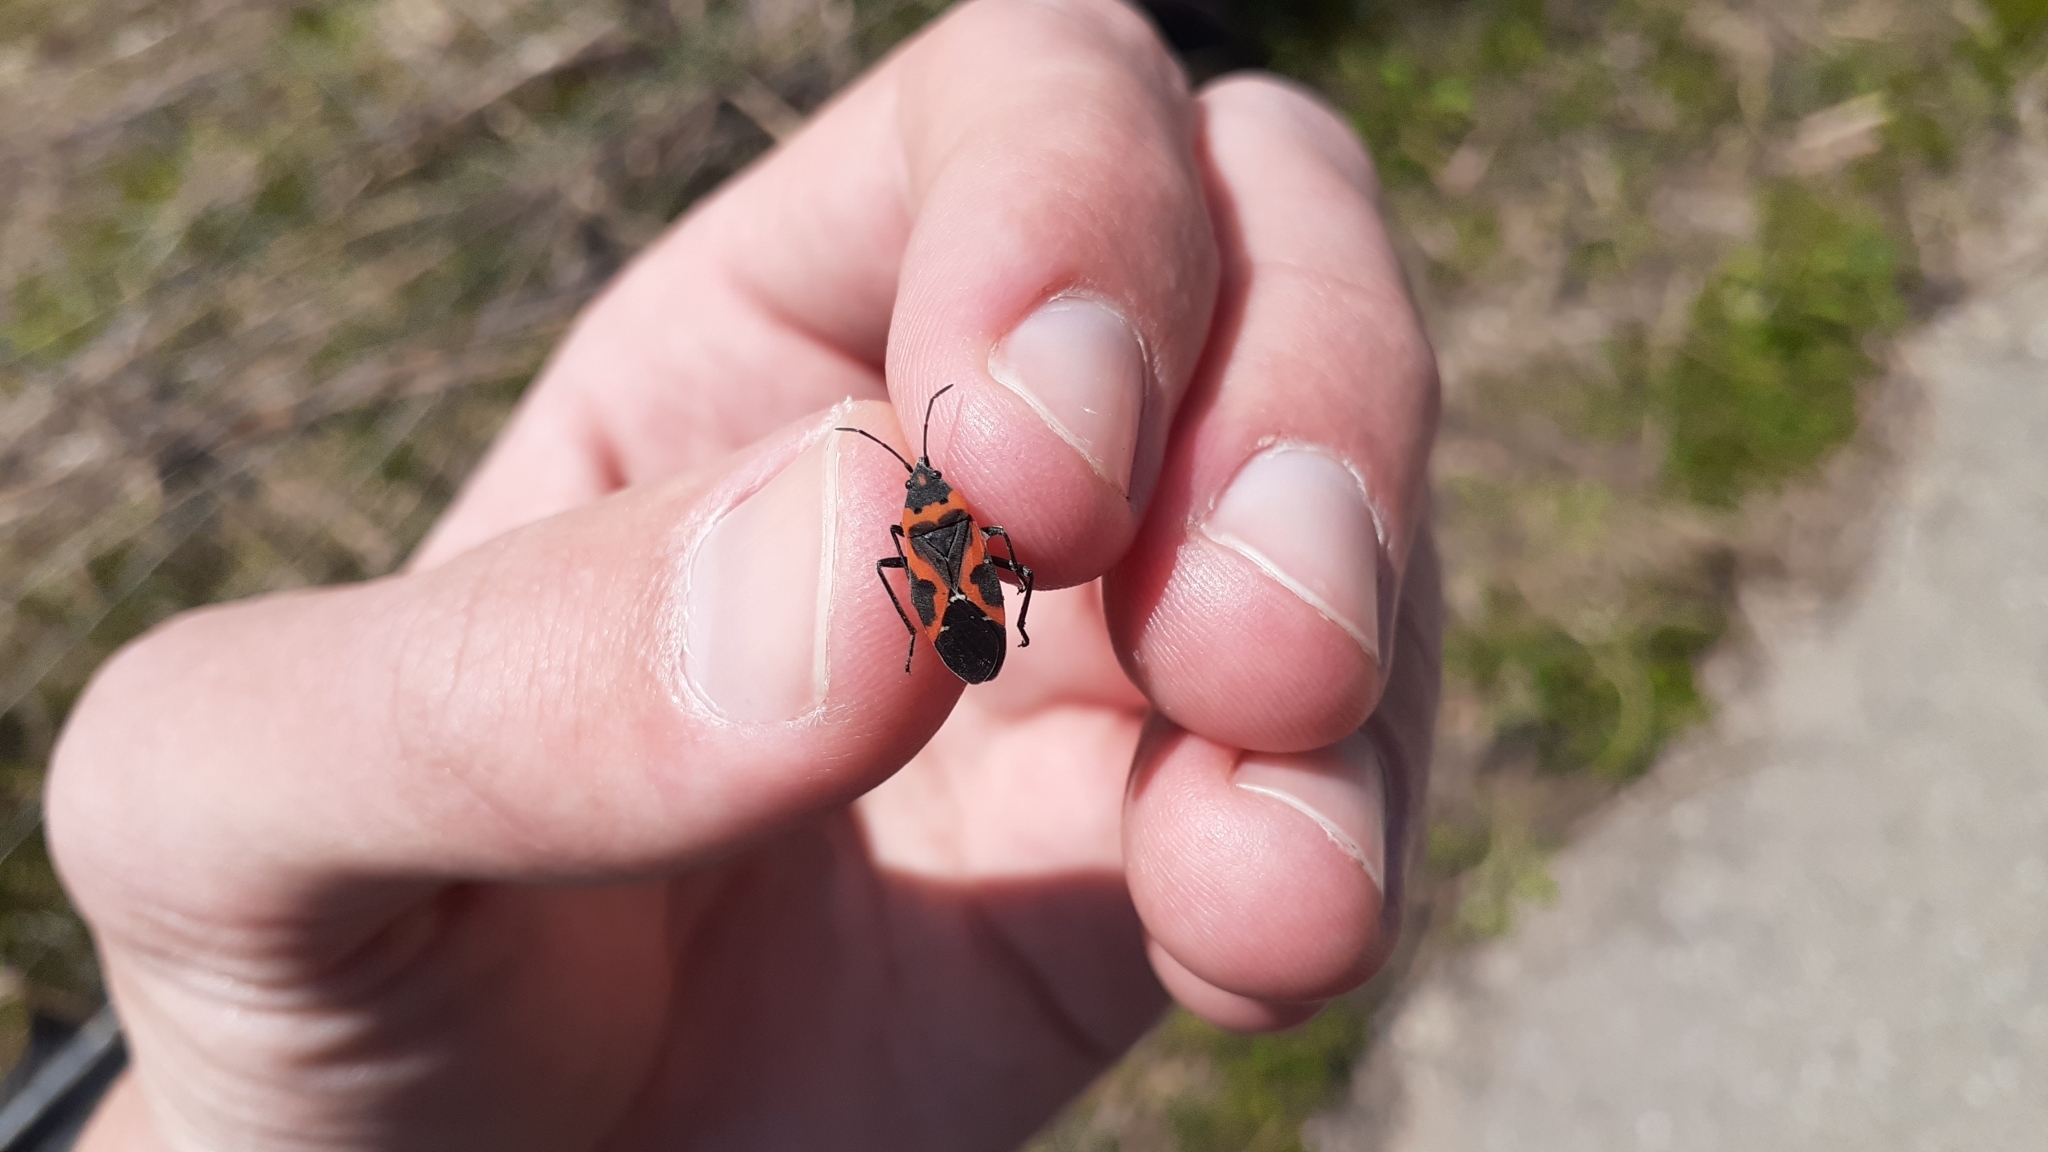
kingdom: Animalia
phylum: Arthropoda
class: Insecta
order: Hemiptera
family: Lygaeidae
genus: Lygaeus
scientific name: Lygaeus kalmii
